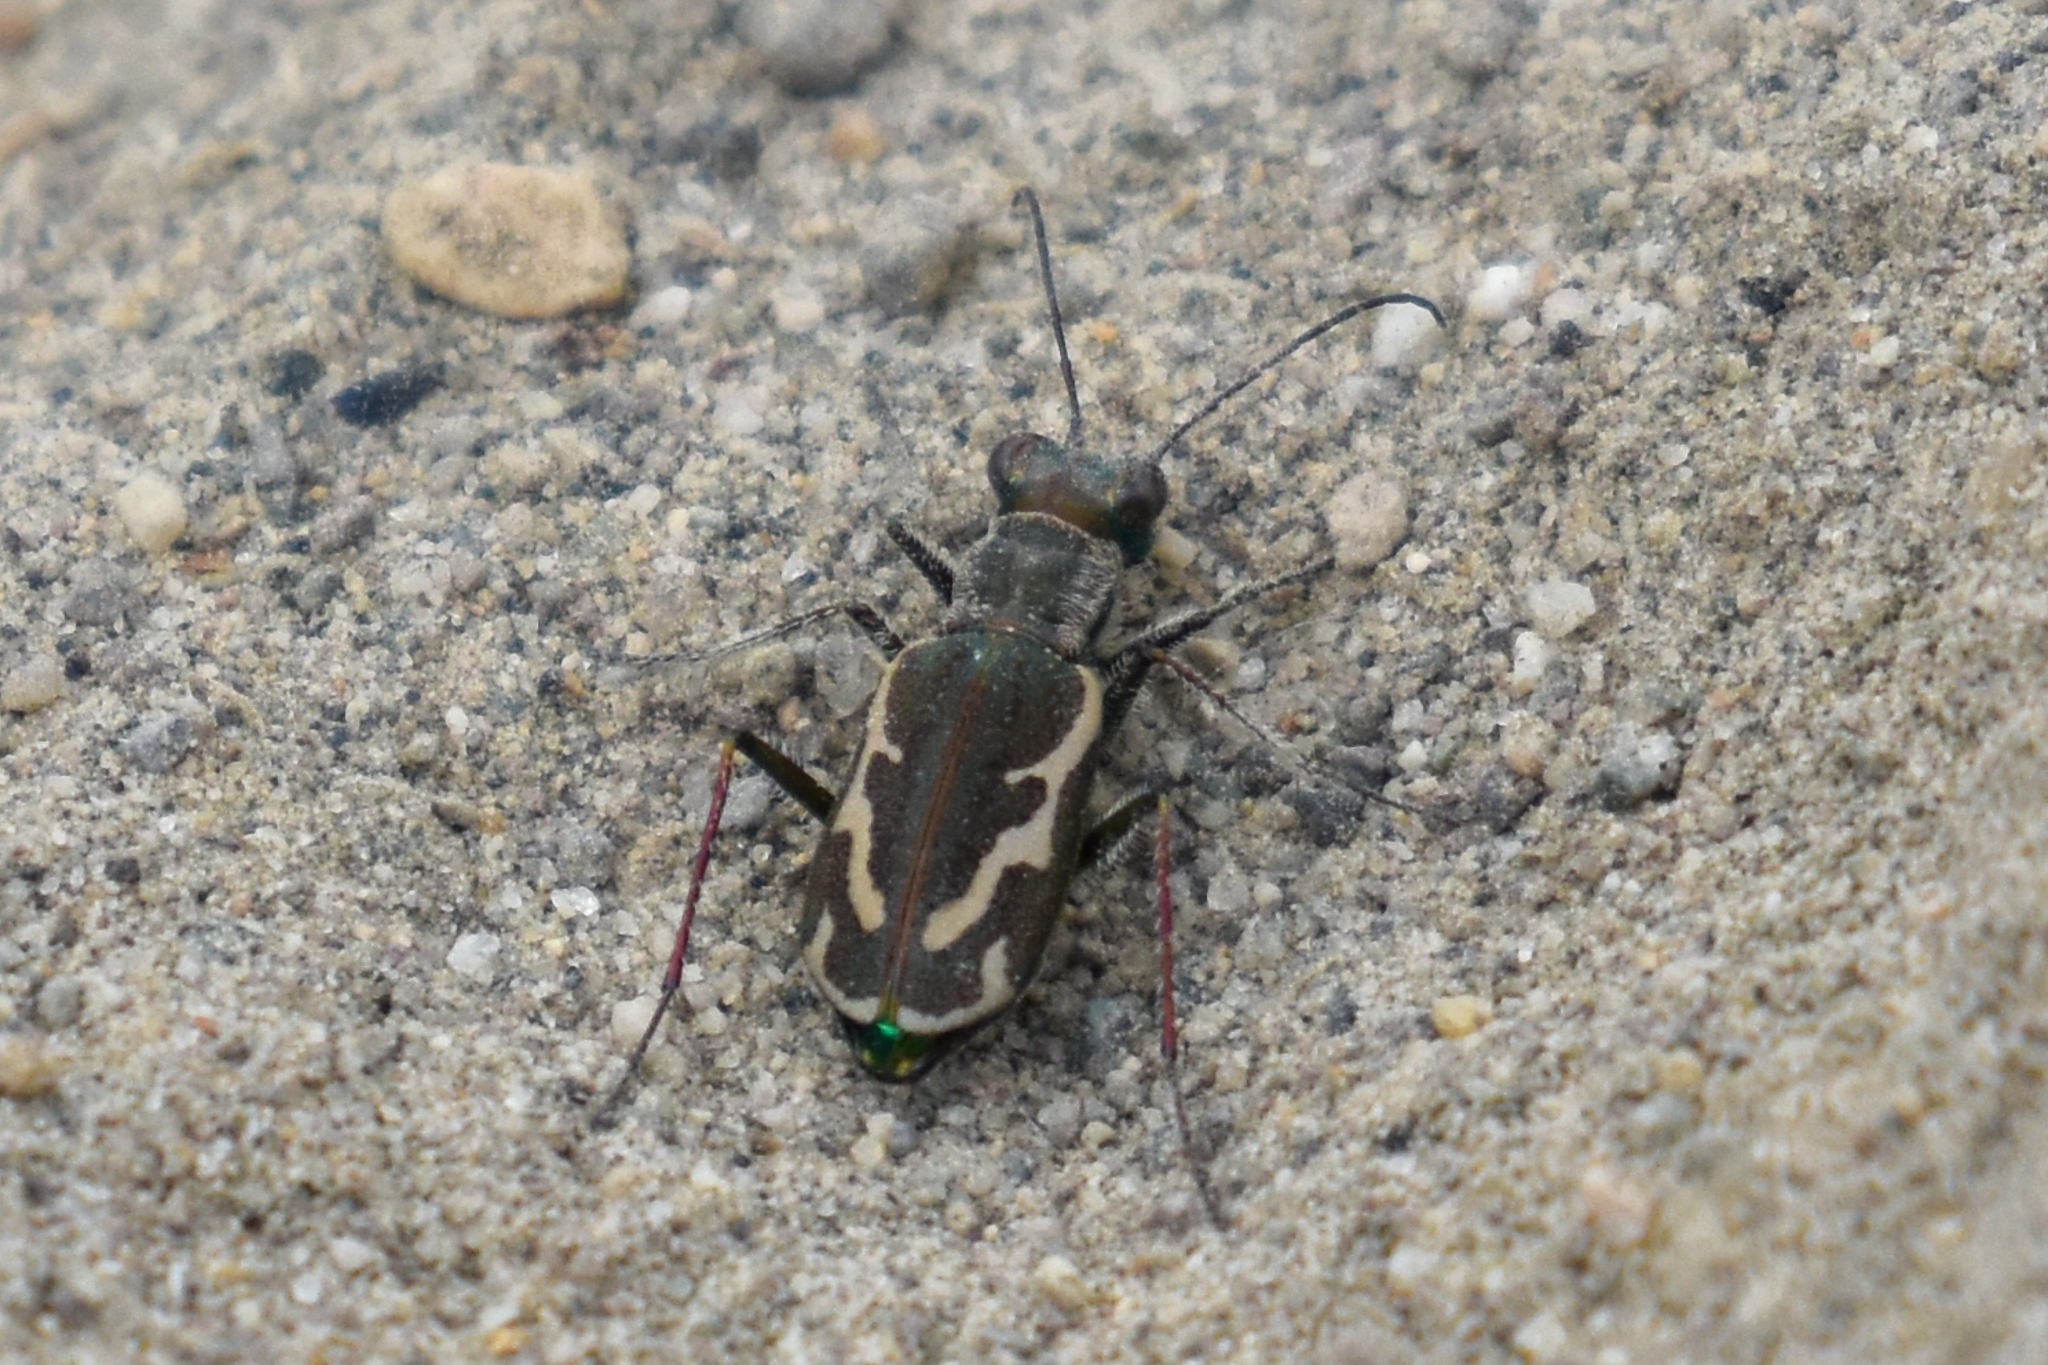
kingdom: Animalia
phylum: Arthropoda
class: Insecta
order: Coleoptera
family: Carabidae
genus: Cylindera
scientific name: Cylindera terricola
